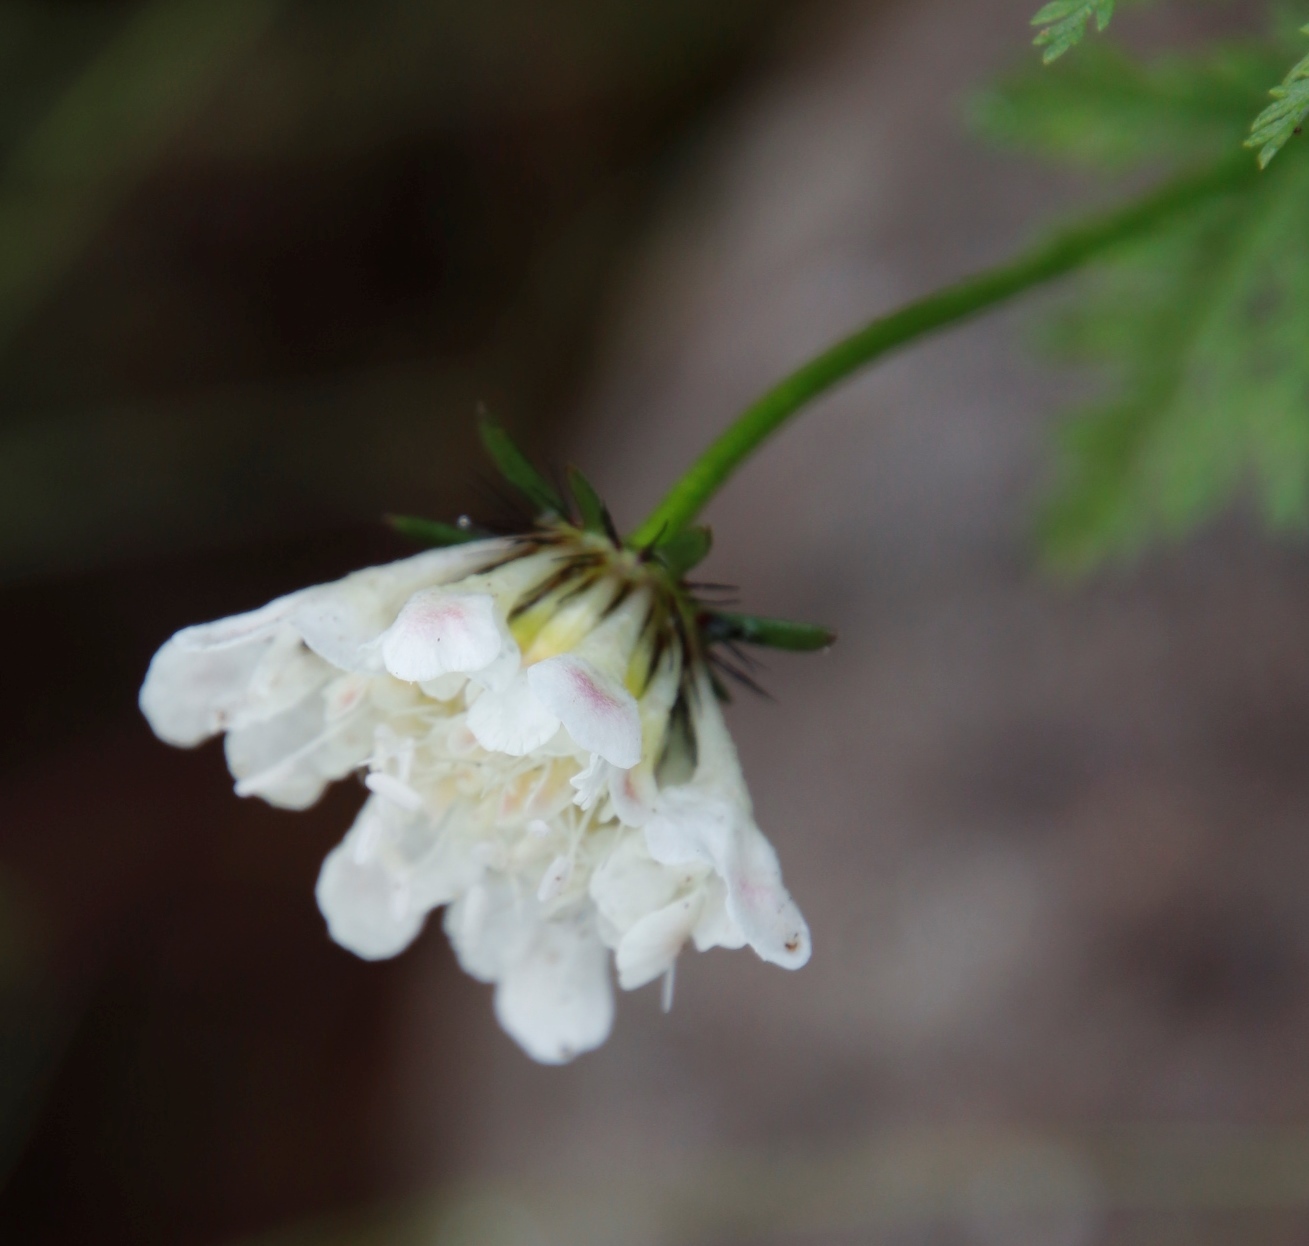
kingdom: Plantae
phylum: Tracheophyta
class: Magnoliopsida
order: Dipsacales
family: Caprifoliaceae
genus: Scabiosa
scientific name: Scabiosa columbaria
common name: Small scabious
